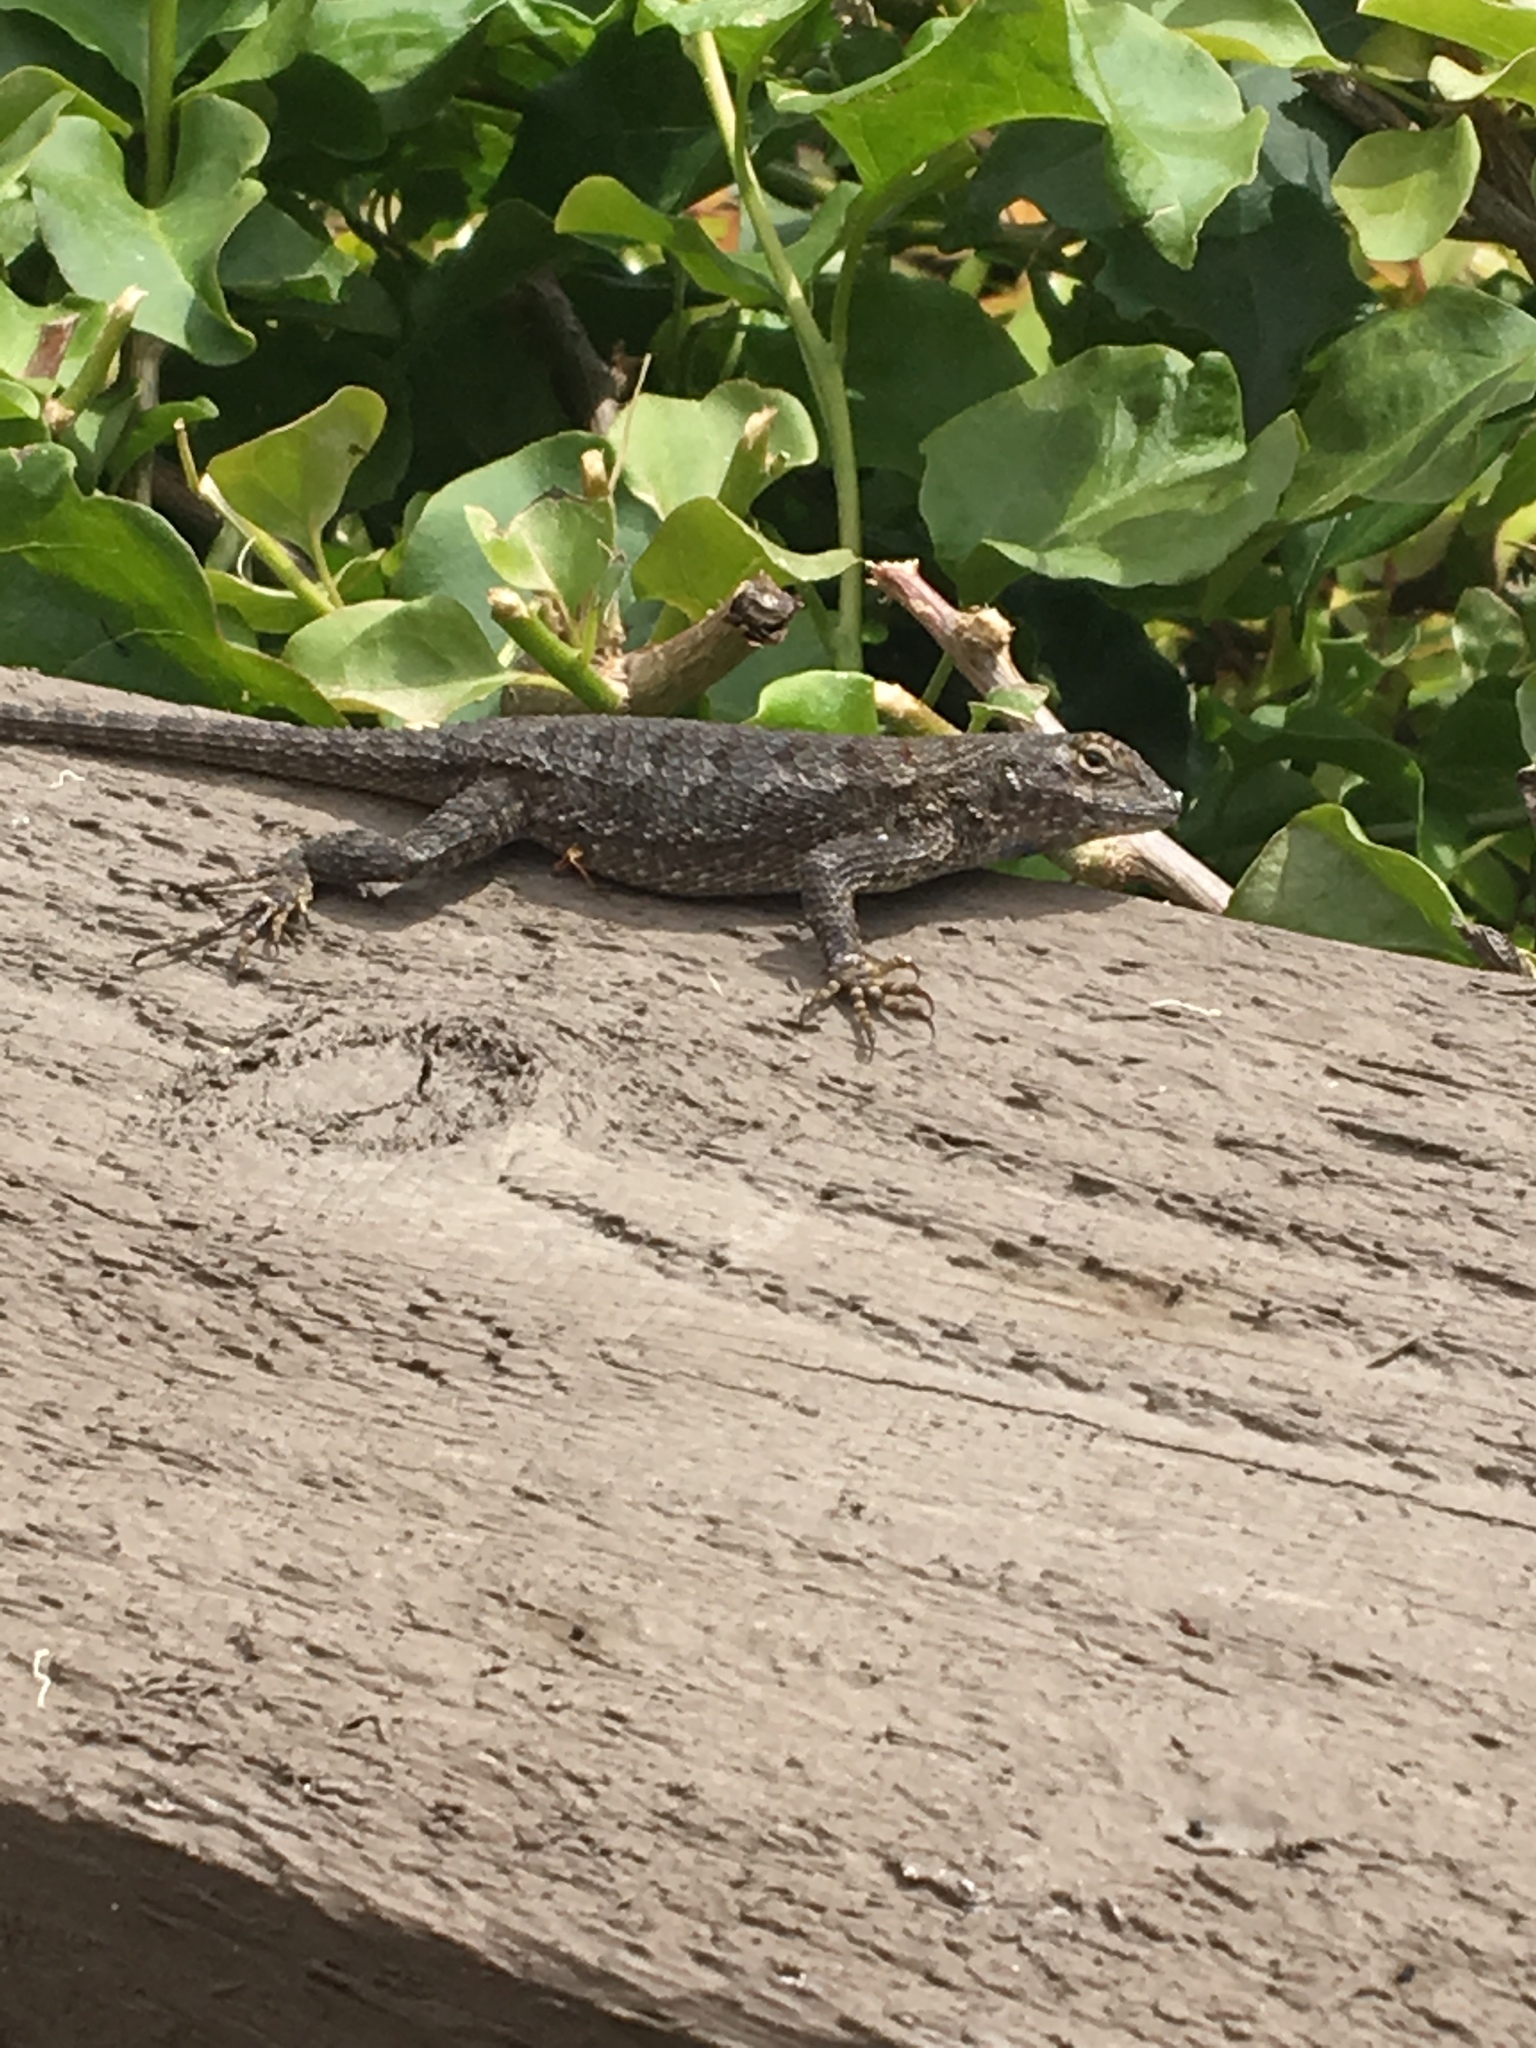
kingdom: Animalia
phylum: Chordata
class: Squamata
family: Phrynosomatidae
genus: Sceloporus
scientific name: Sceloporus occidentalis
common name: Western fence lizard
